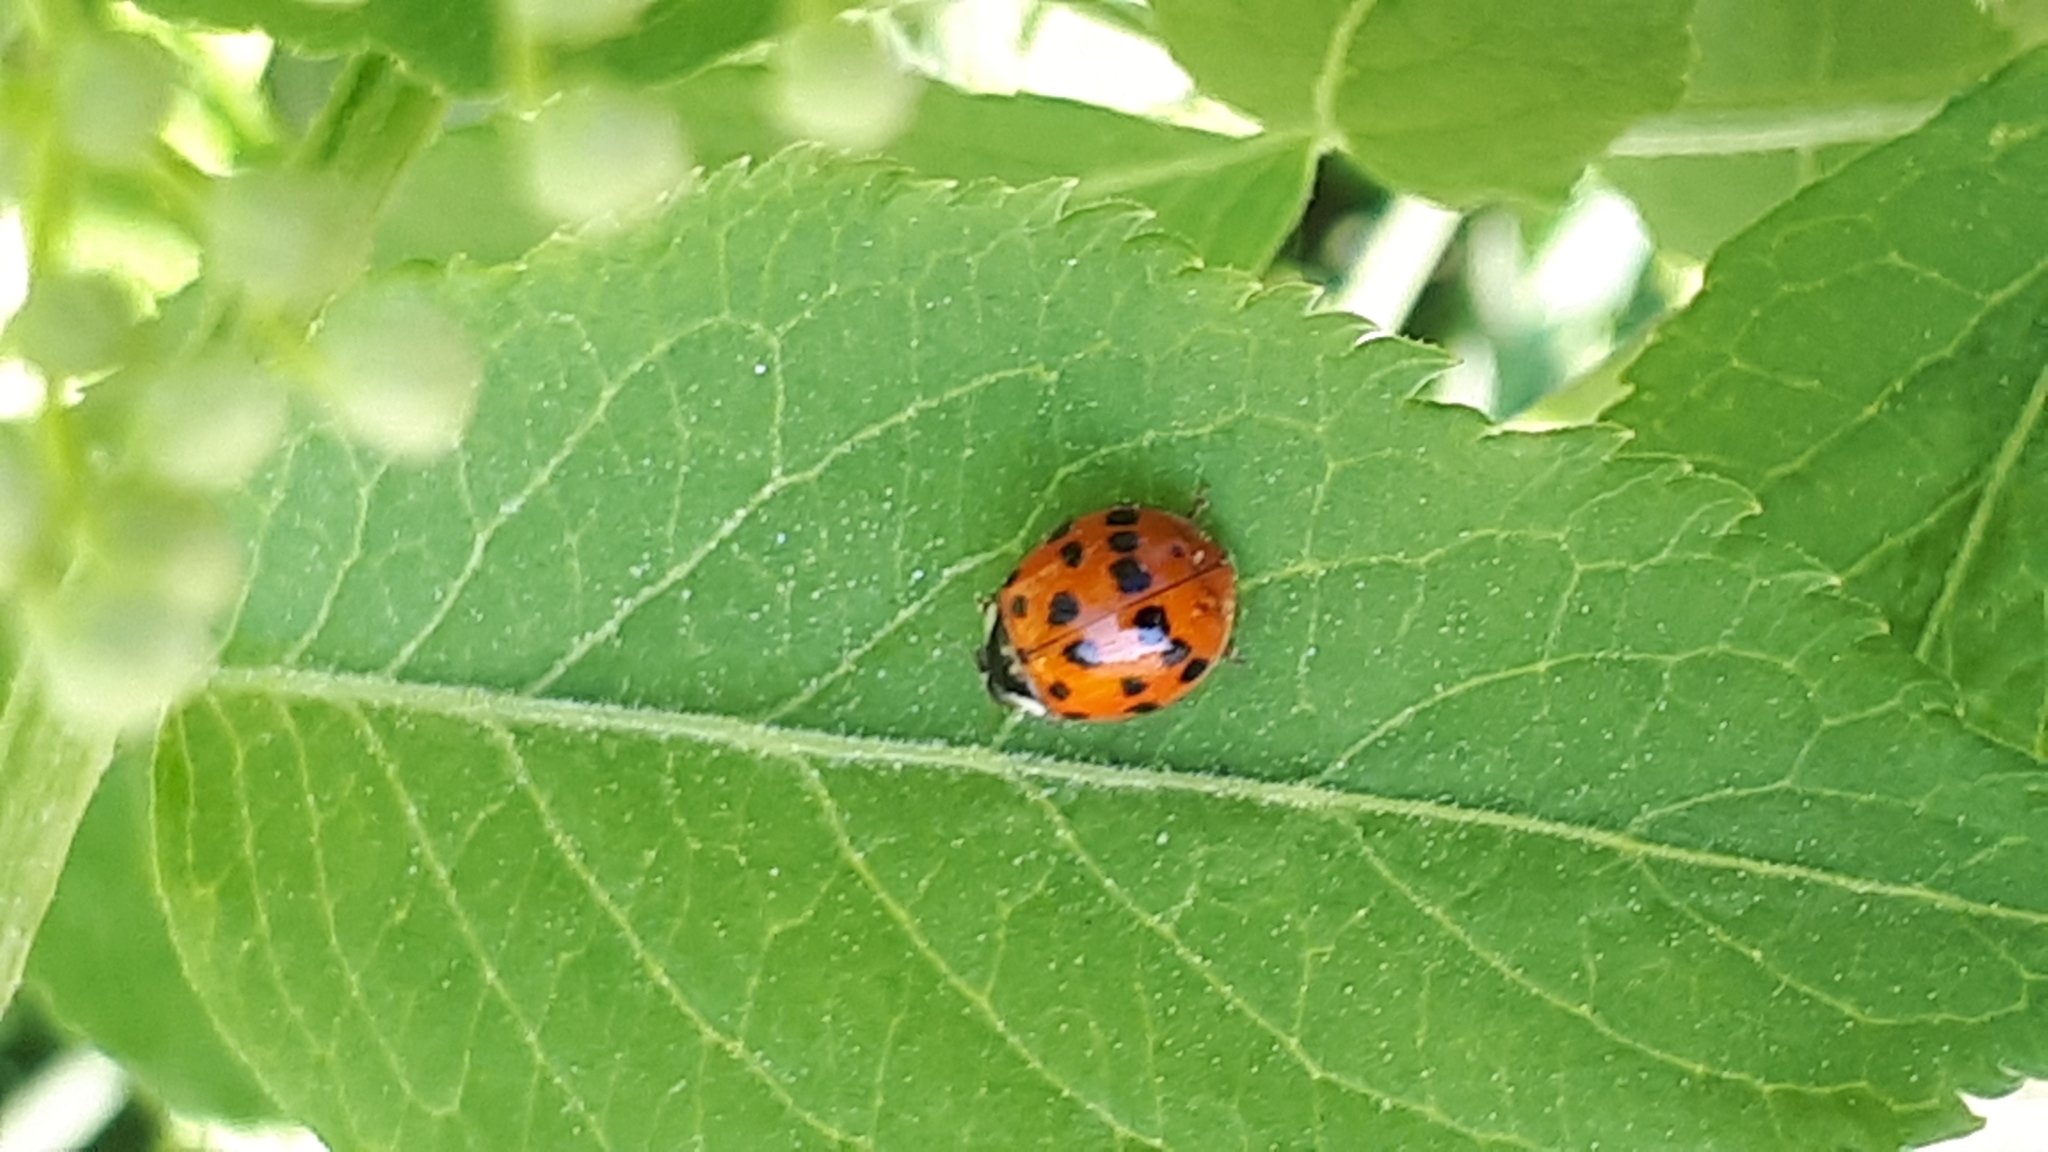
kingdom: Animalia
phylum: Arthropoda
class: Insecta
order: Coleoptera
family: Coccinellidae
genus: Harmonia
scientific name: Harmonia axyridis
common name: Harlequin ladybird
